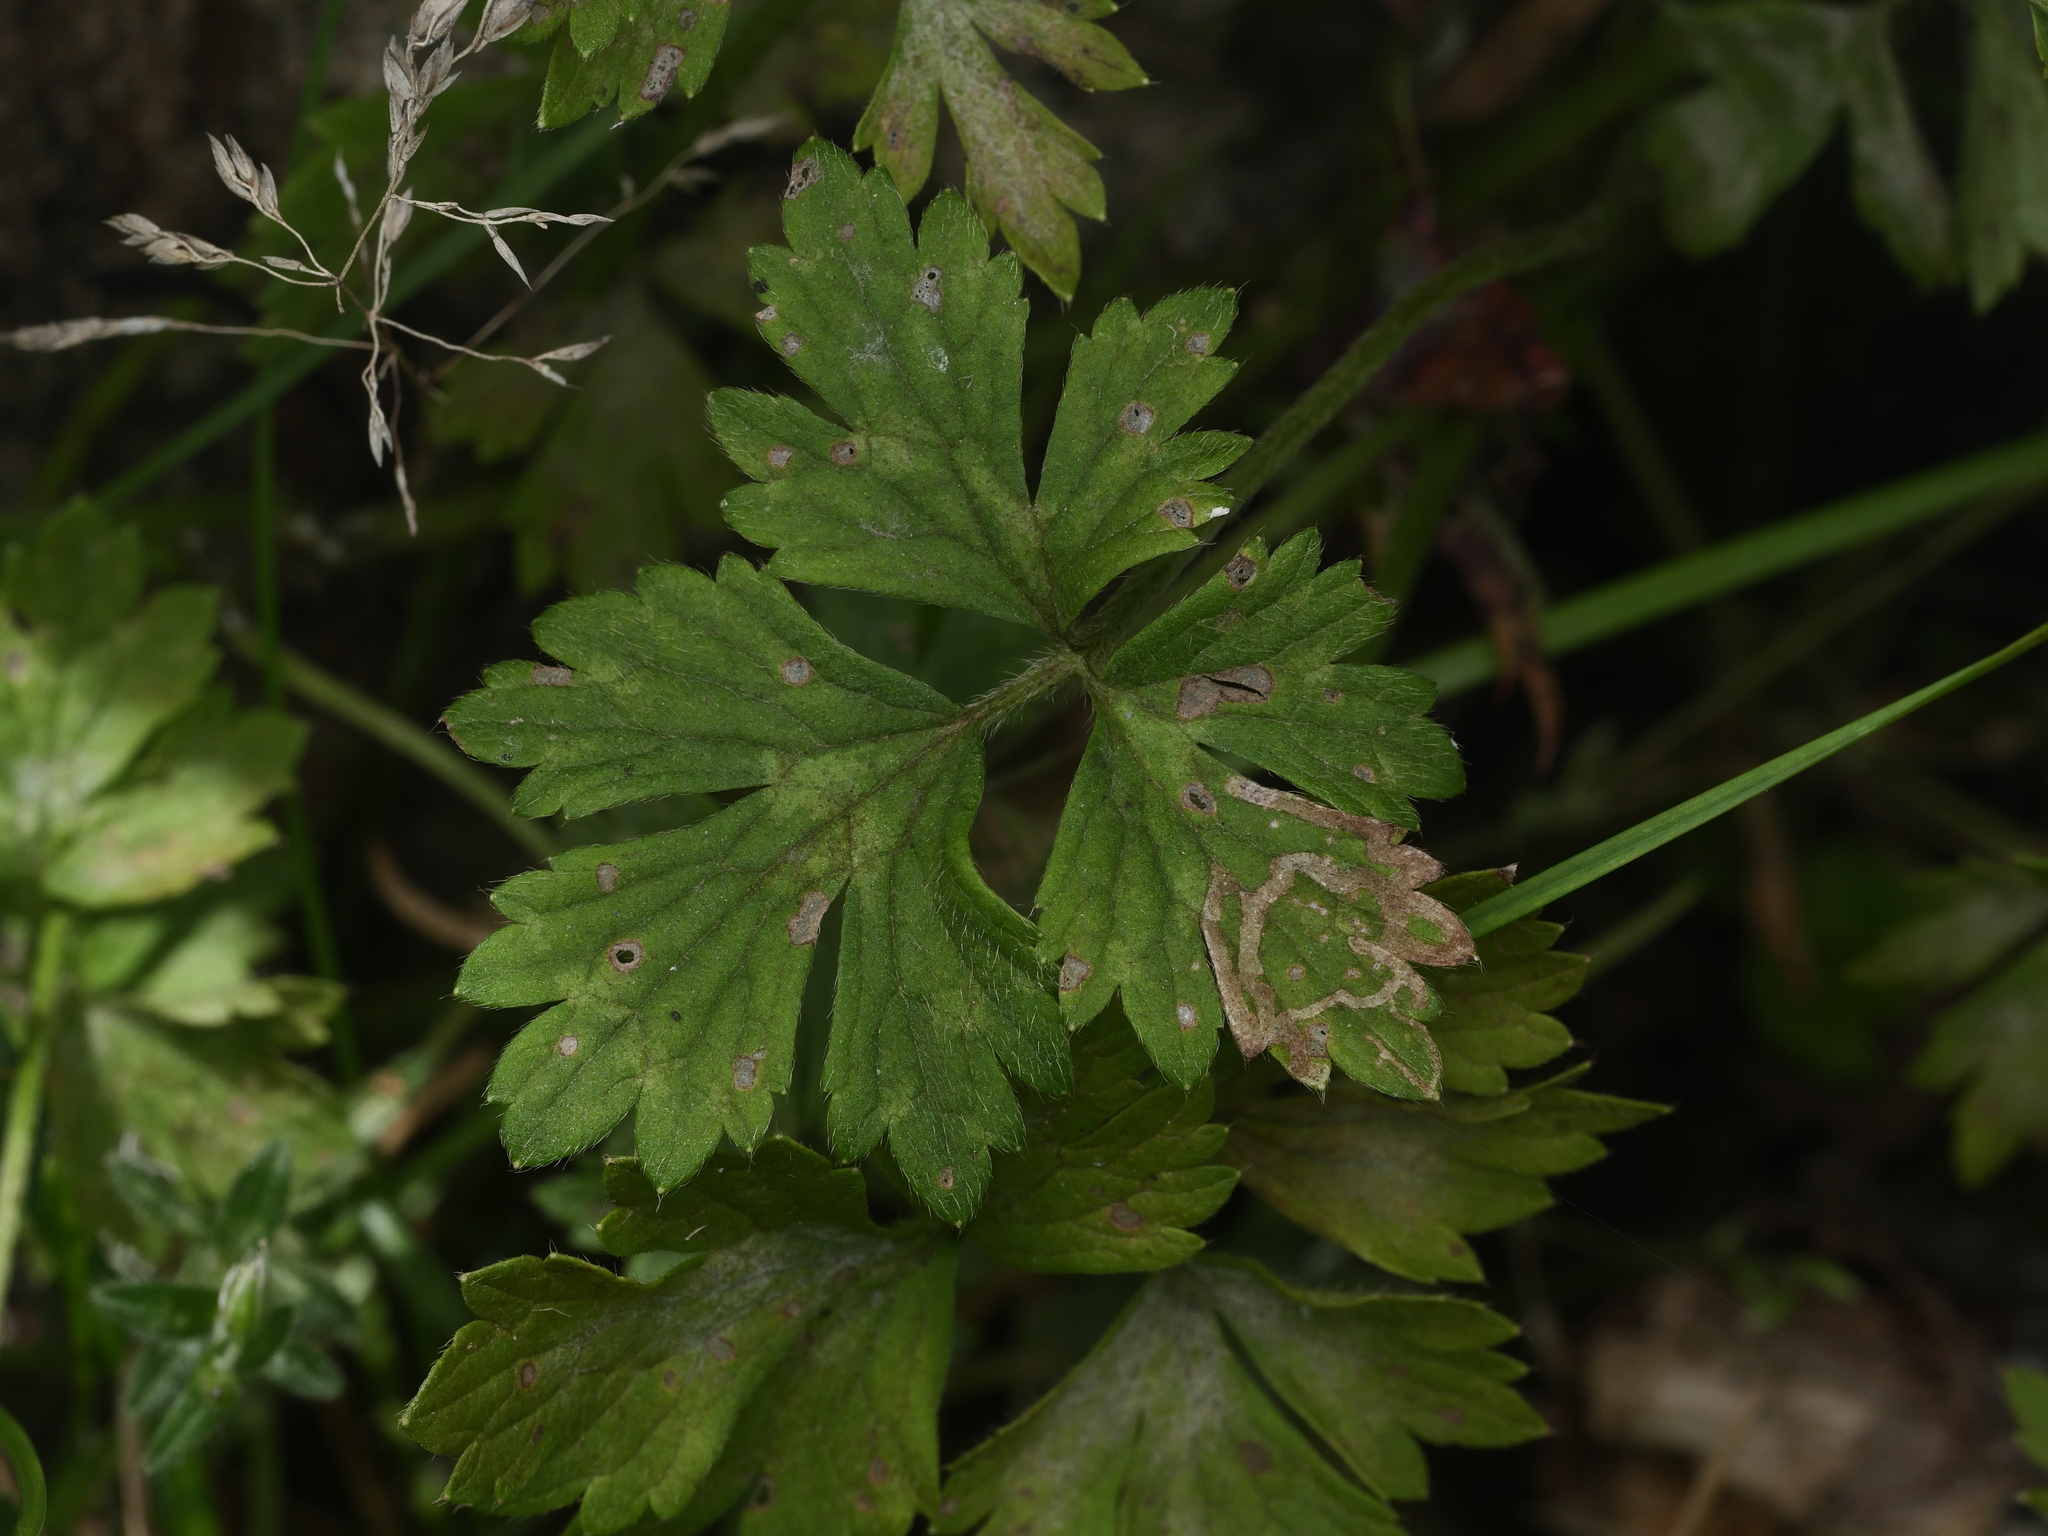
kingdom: Plantae
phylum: Tracheophyta
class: Magnoliopsida
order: Ranunculales
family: Ranunculaceae
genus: Ranunculus
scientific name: Ranunculus repens
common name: Creeping buttercup
